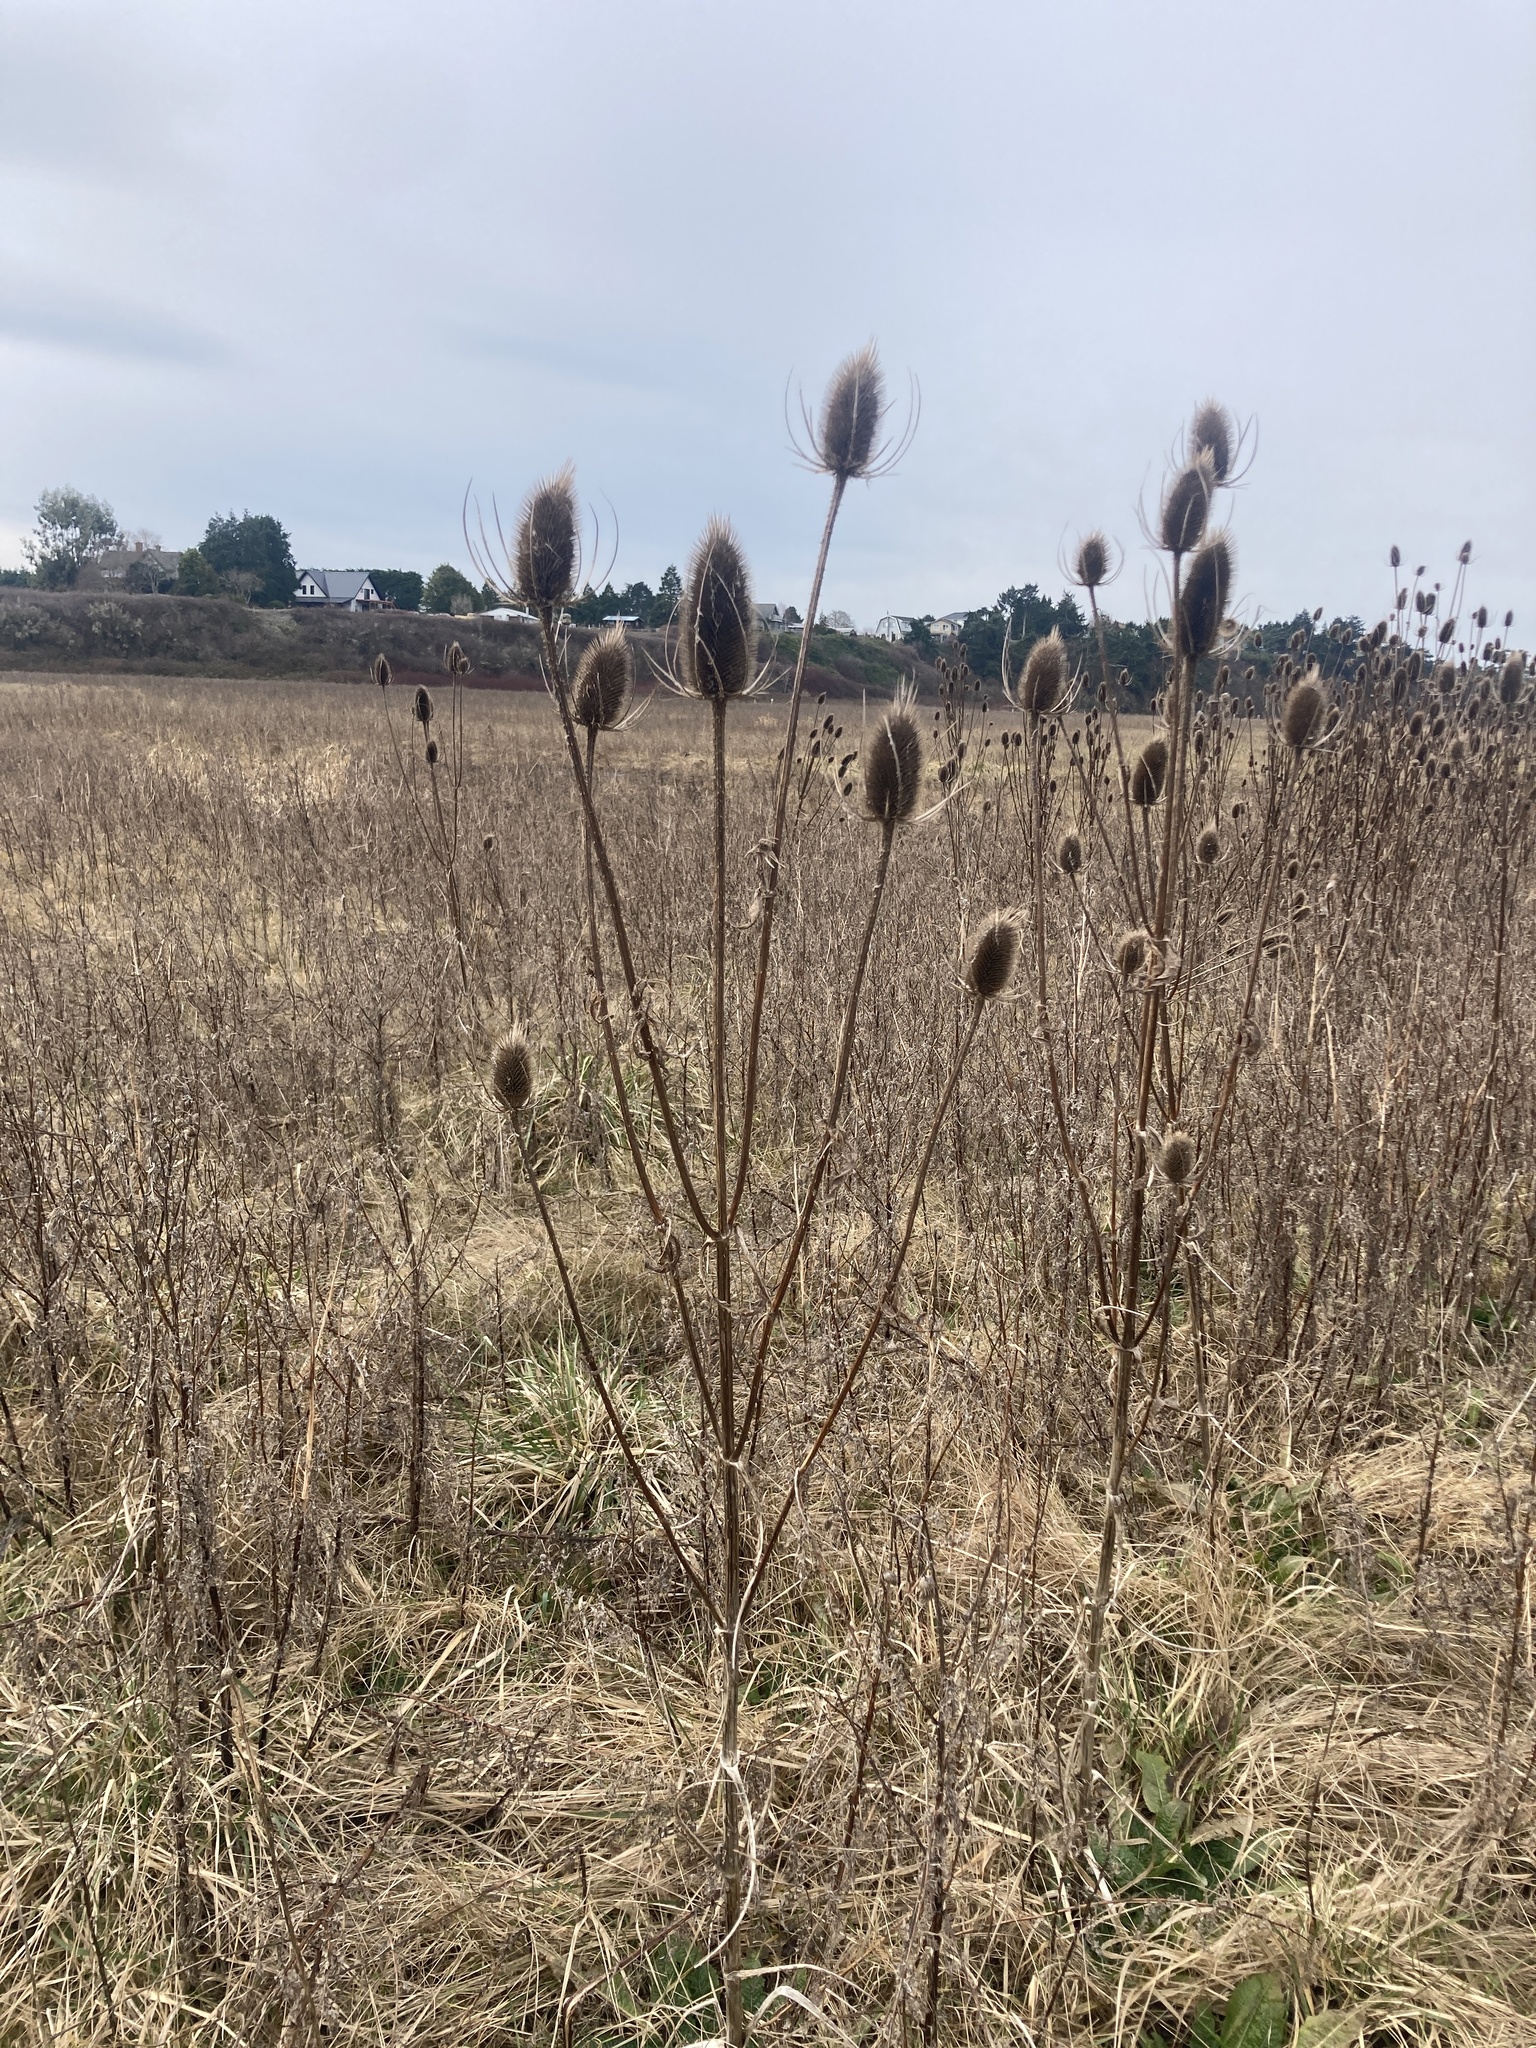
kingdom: Plantae
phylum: Tracheophyta
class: Magnoliopsida
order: Dipsacales
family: Caprifoliaceae
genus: Dipsacus
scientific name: Dipsacus fullonum
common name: Teasel
